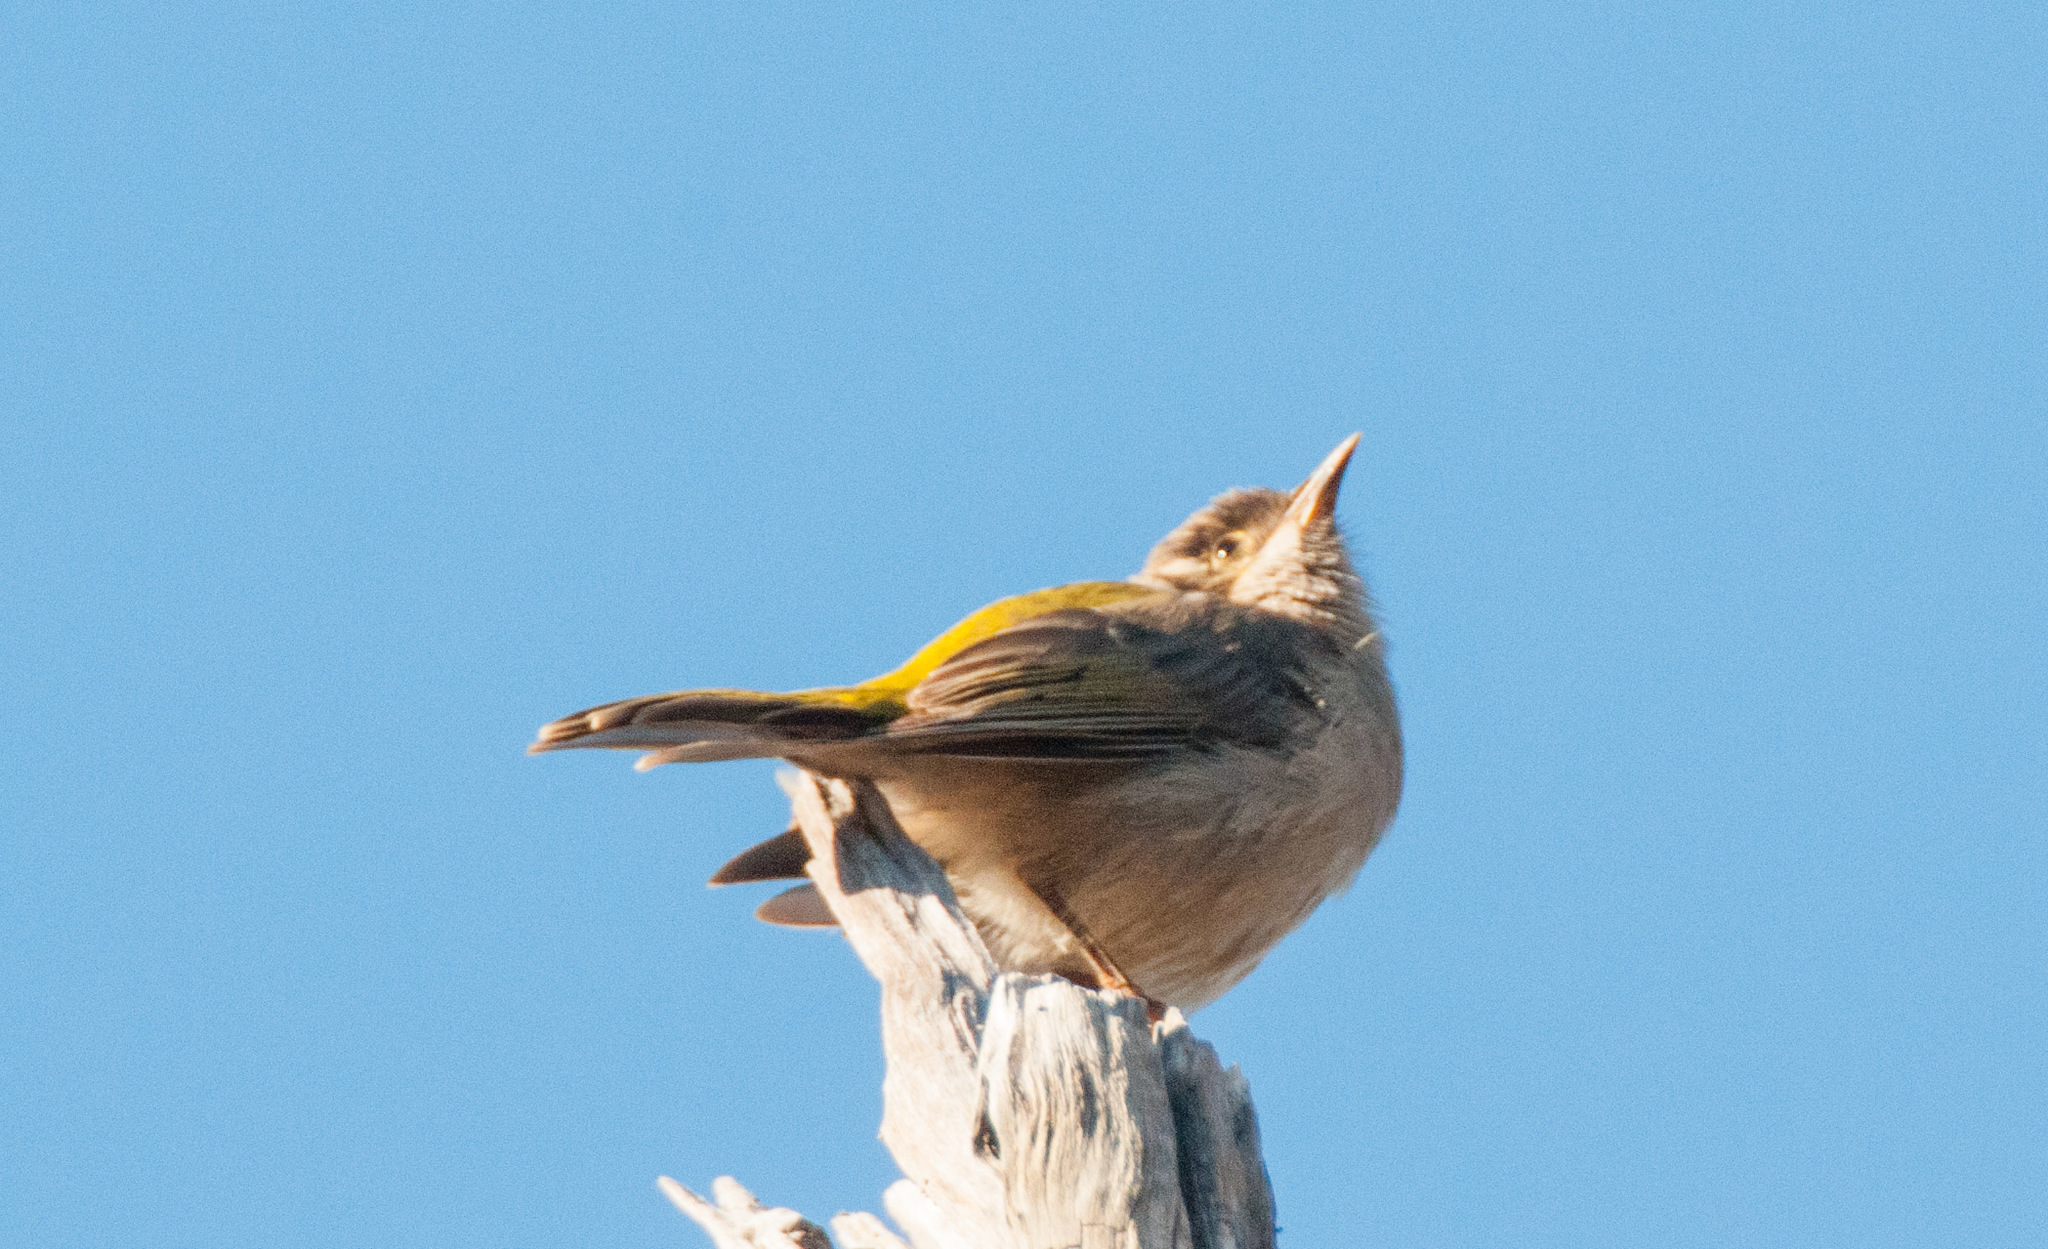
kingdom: Animalia
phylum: Chordata
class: Aves
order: Passeriformes
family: Meliphagidae
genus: Melithreptus
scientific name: Melithreptus brevirostris
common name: Brown-headed honeyeater
